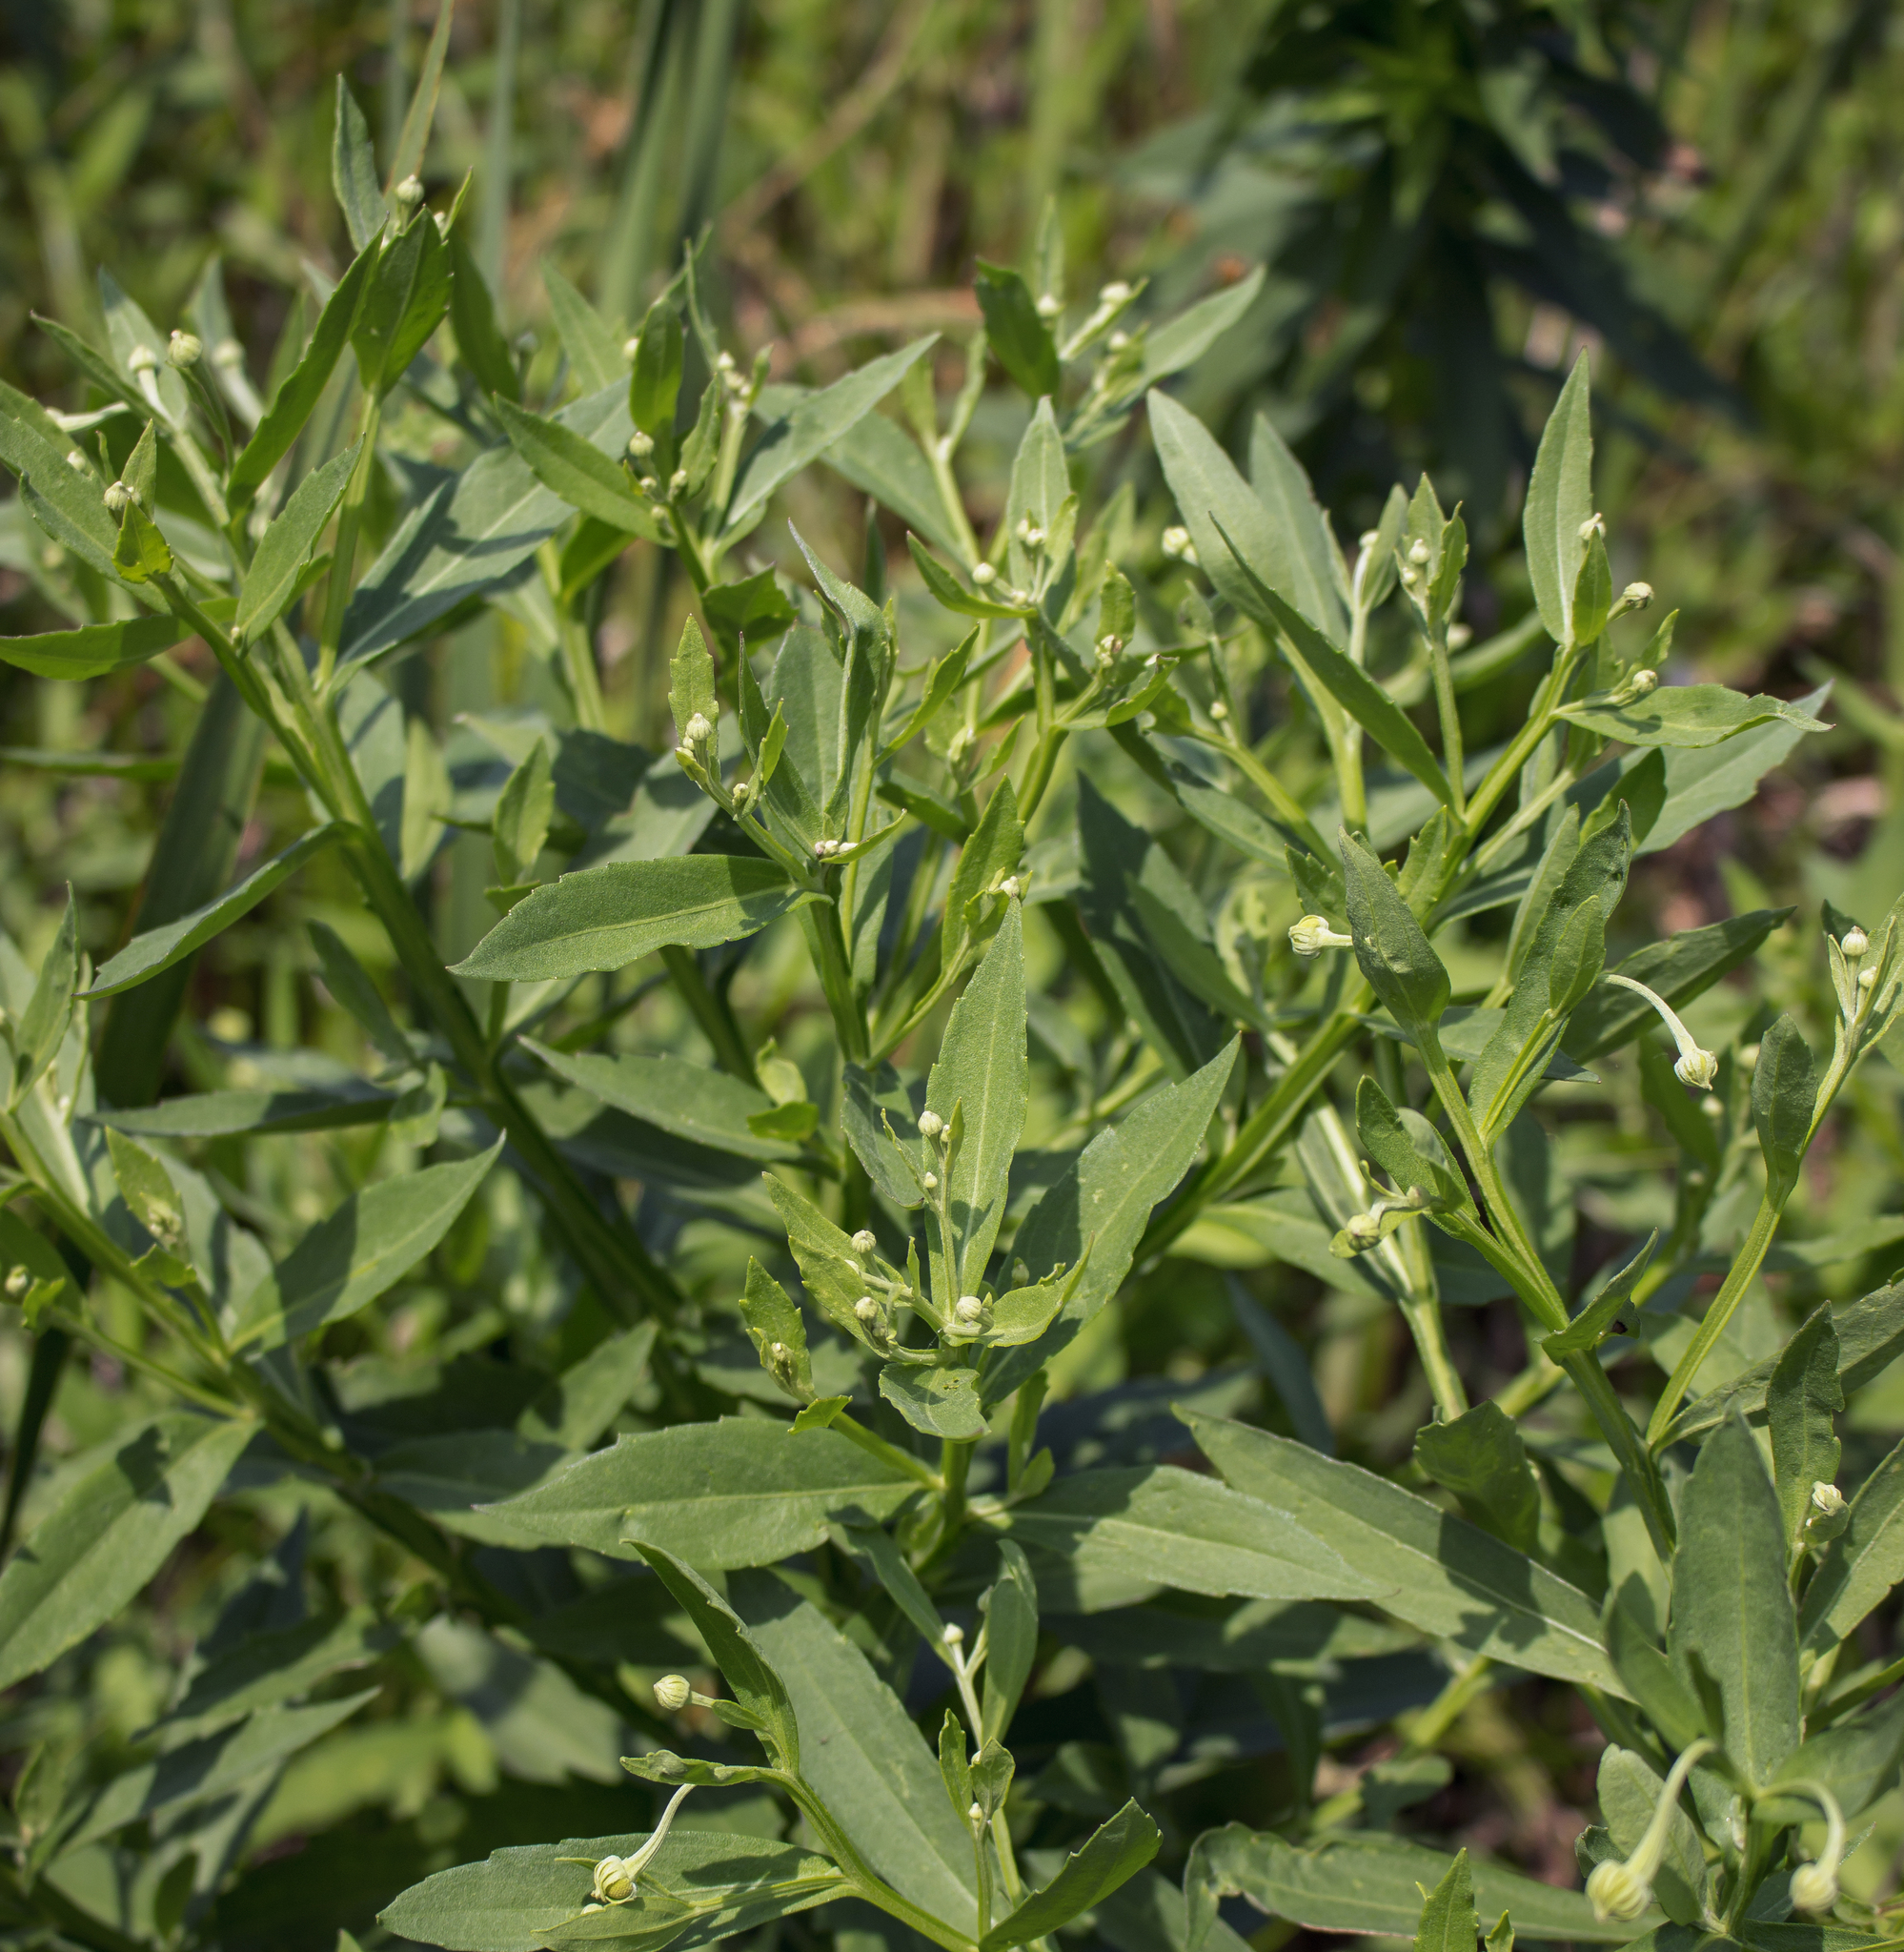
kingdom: Plantae
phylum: Tracheophyta
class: Magnoliopsida
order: Asterales
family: Asteraceae
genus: Helenium
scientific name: Helenium autumnale
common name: Sneezeweed
